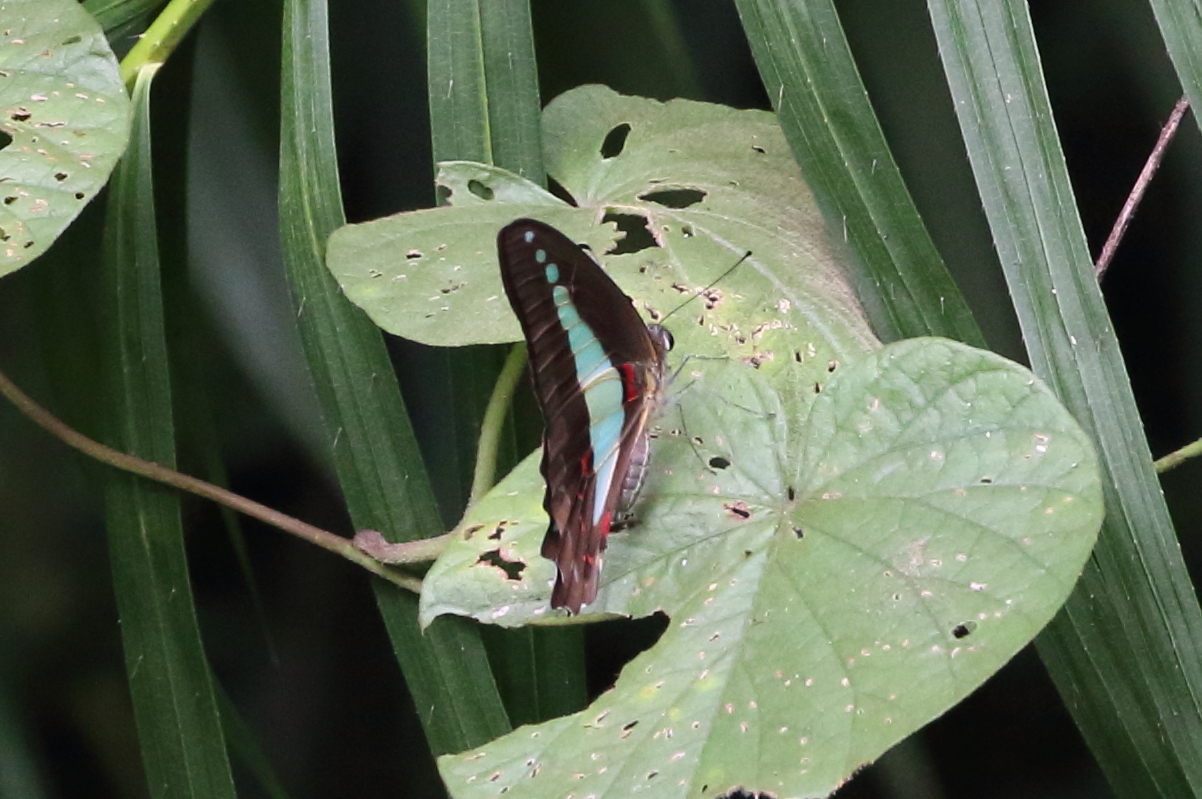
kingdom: Animalia
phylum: Arthropoda
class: Insecta
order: Lepidoptera
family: Papilionidae
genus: Graphium
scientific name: Graphium
